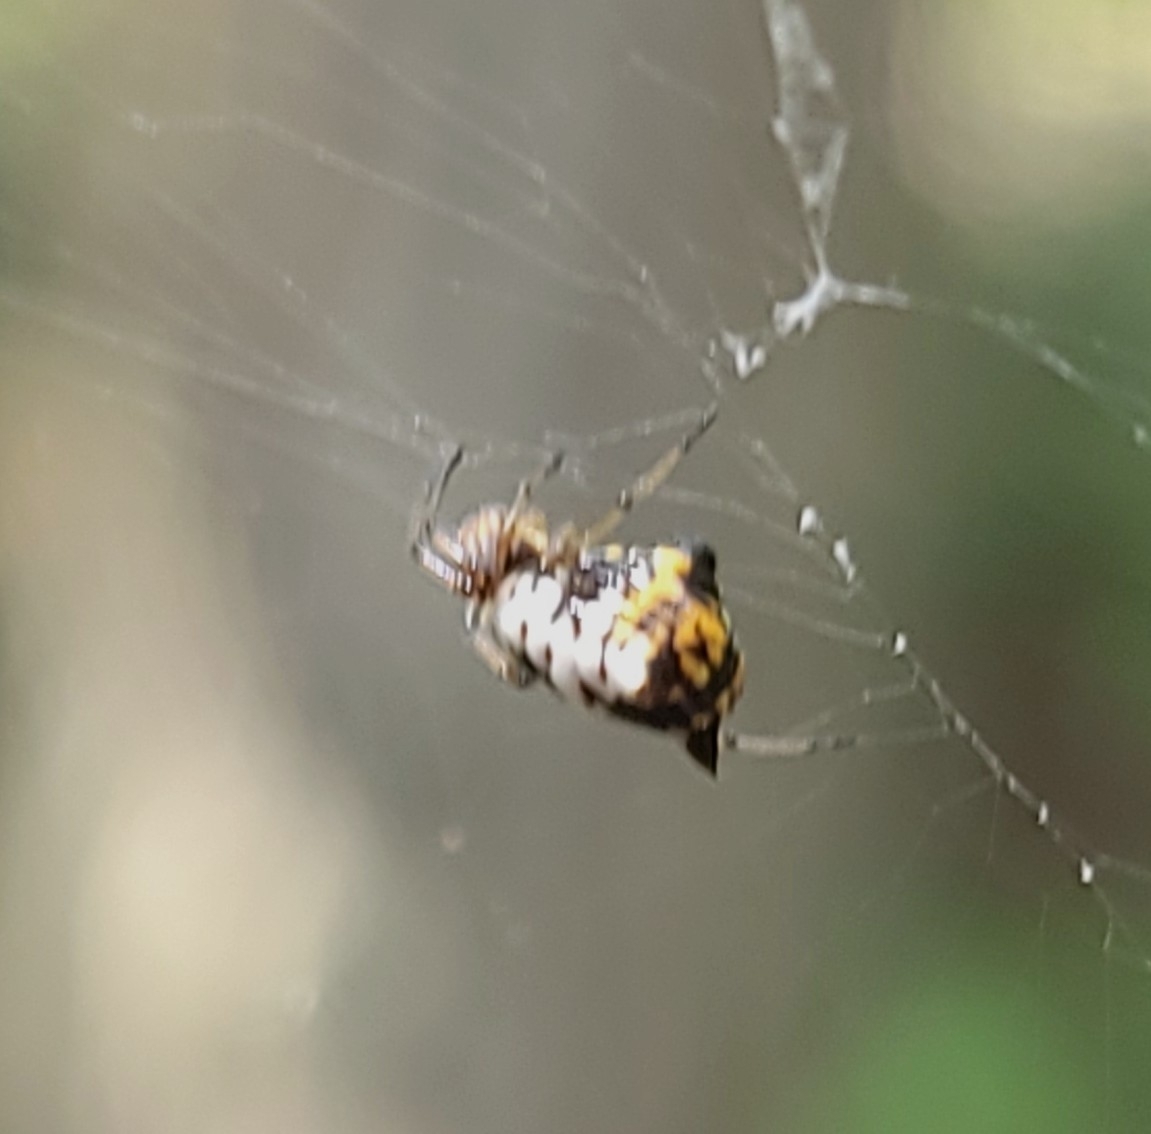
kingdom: Animalia
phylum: Arthropoda
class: Arachnida
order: Araneae
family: Araneidae
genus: Micrathena
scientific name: Micrathena mitrata
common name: Orb weavers
